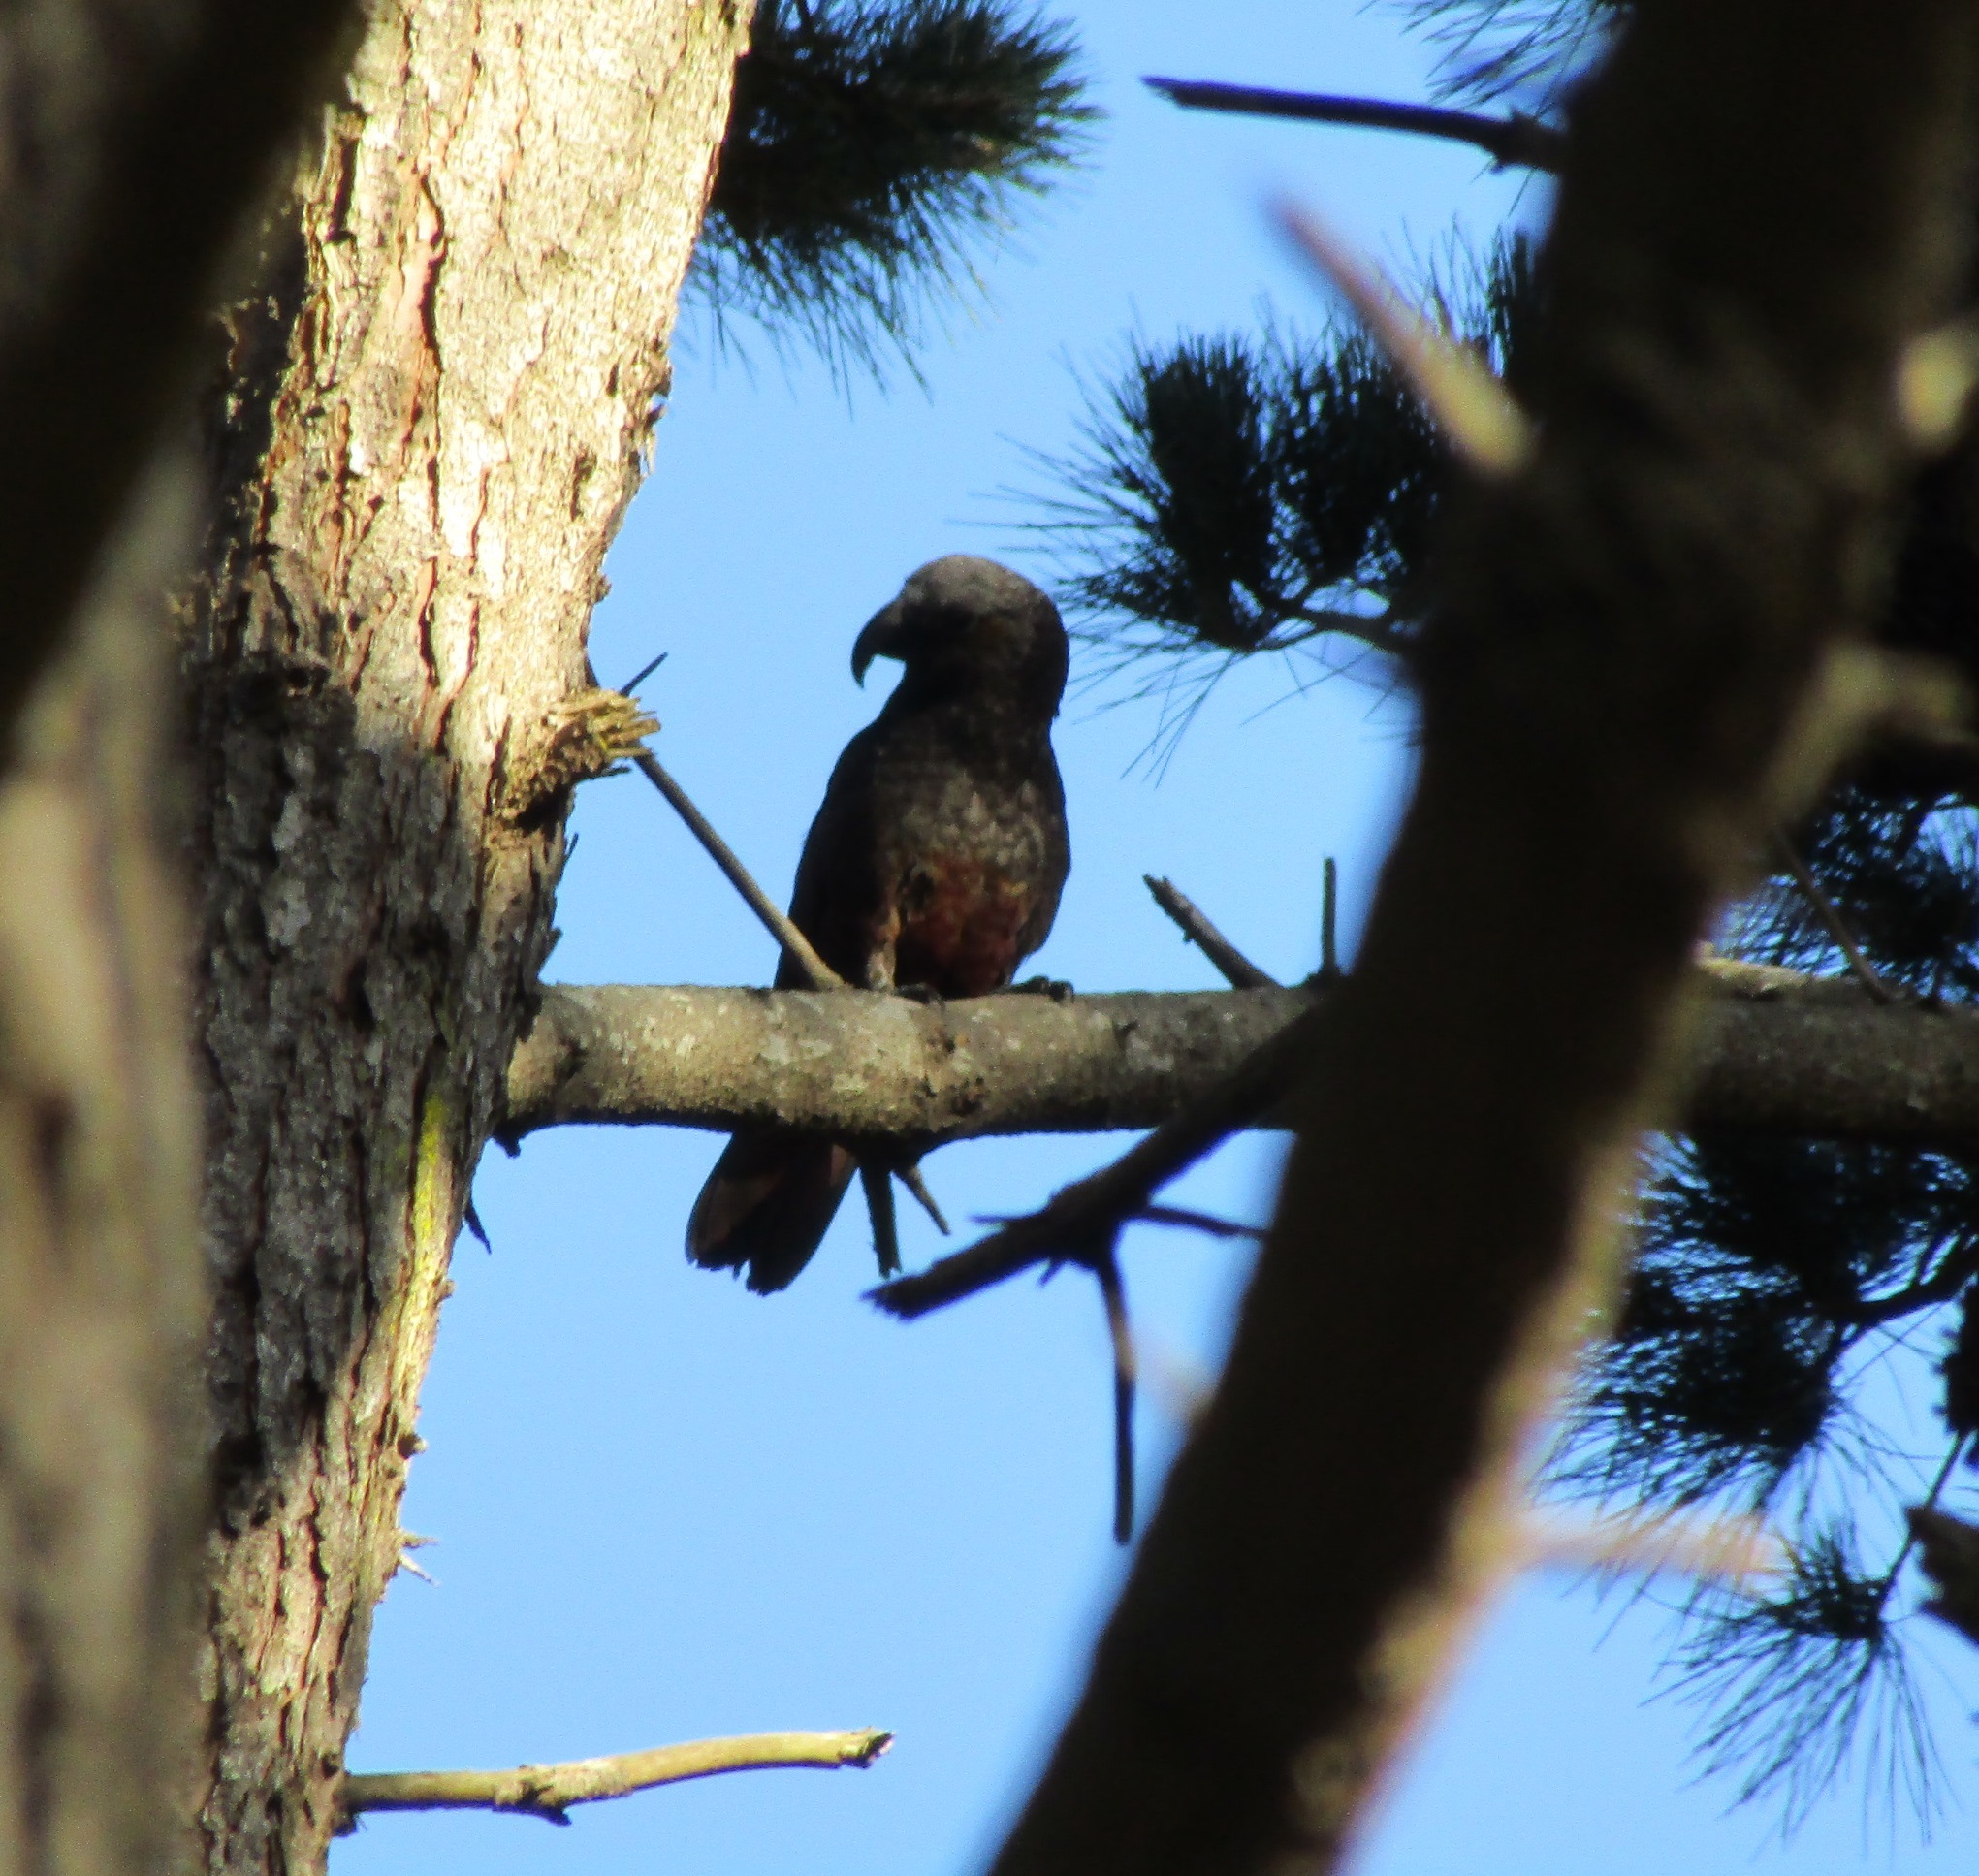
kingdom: Animalia
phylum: Chordata
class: Aves
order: Psittaciformes
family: Psittacidae
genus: Nestor
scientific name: Nestor meridionalis
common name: New zealand kaka
